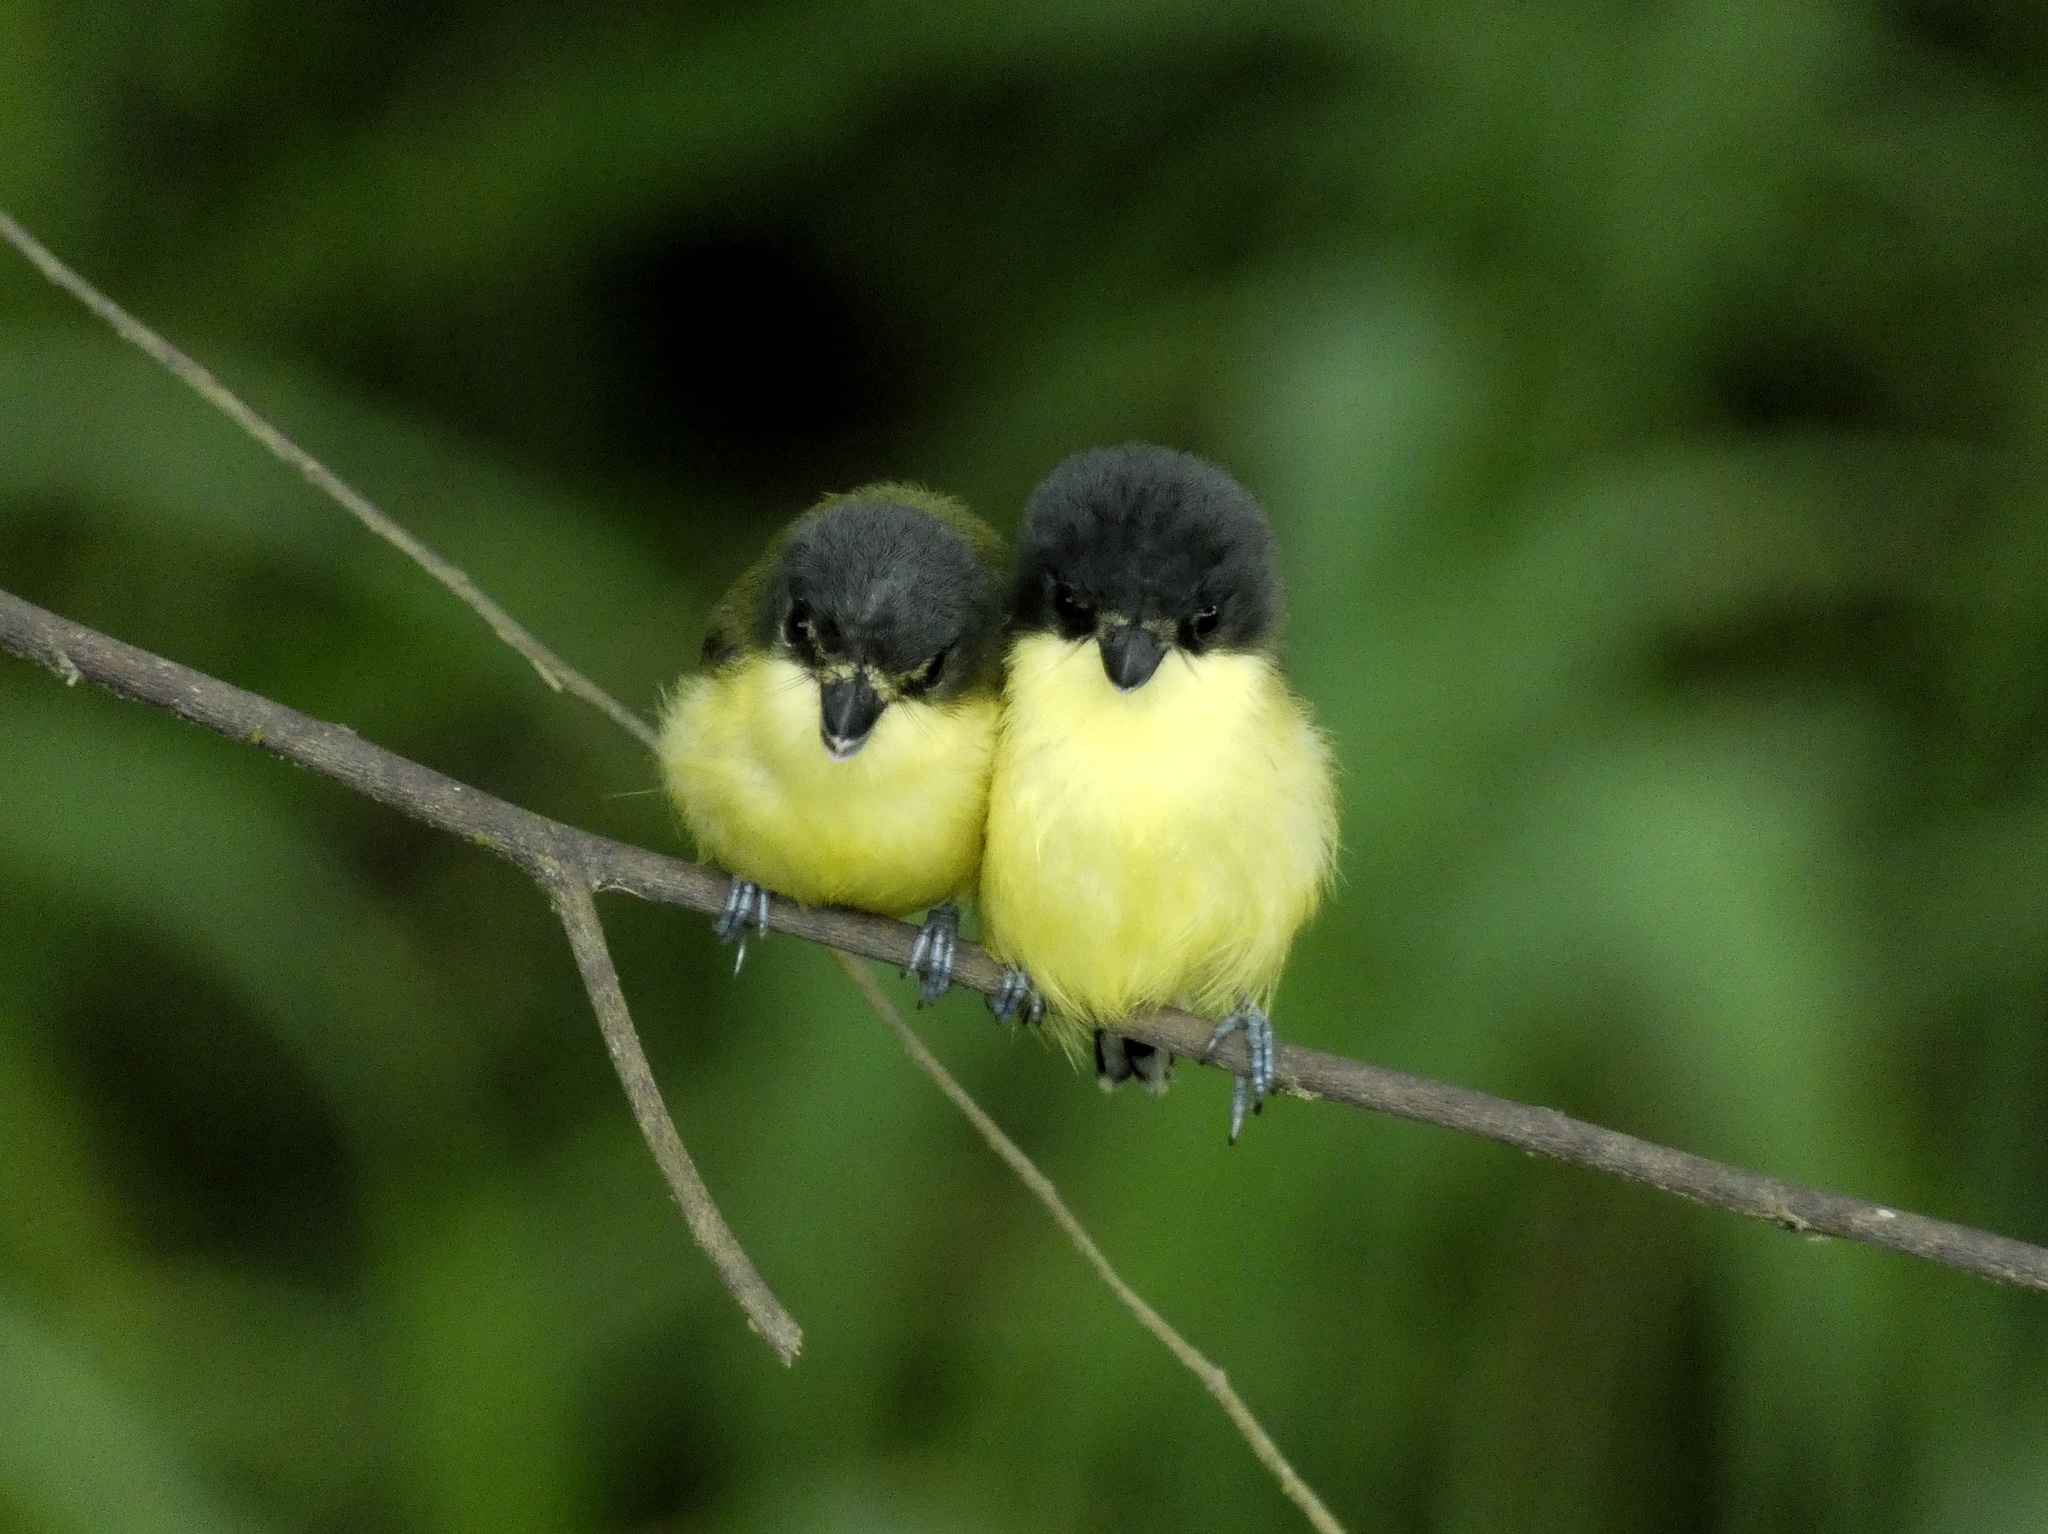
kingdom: Animalia
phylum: Chordata
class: Aves
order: Passeriformes
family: Tyrannidae
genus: Todirostrum
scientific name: Todirostrum cinereum
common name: Common tody-flycatcher
